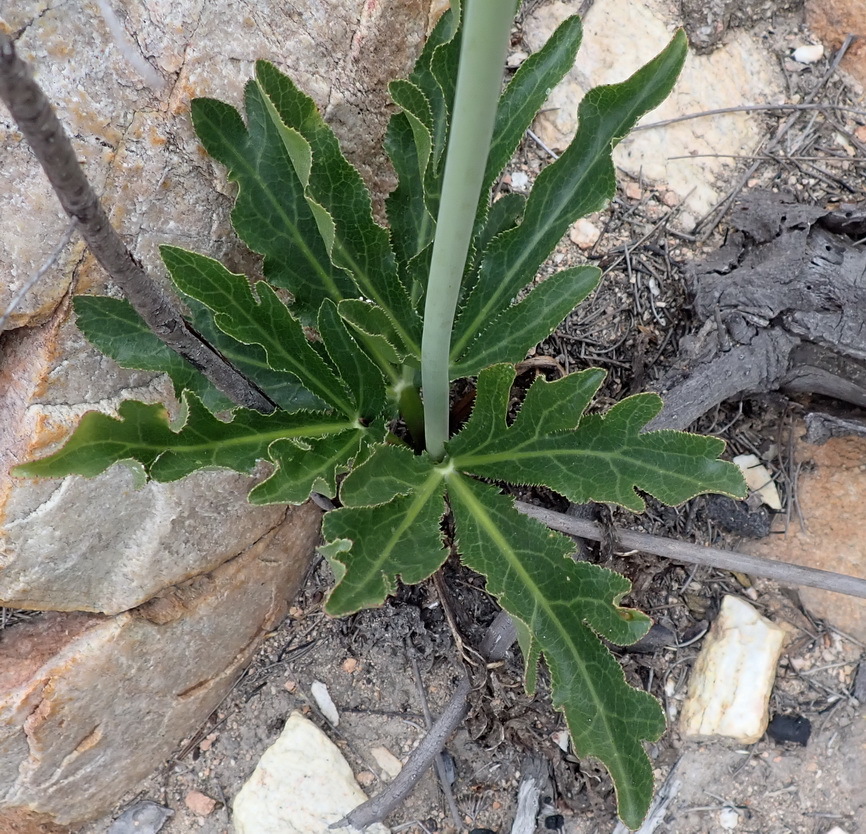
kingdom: Plantae
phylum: Tracheophyta
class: Magnoliopsida
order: Apiales
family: Apiaceae
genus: Lichtensteinia
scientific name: Lichtensteinia trifida
